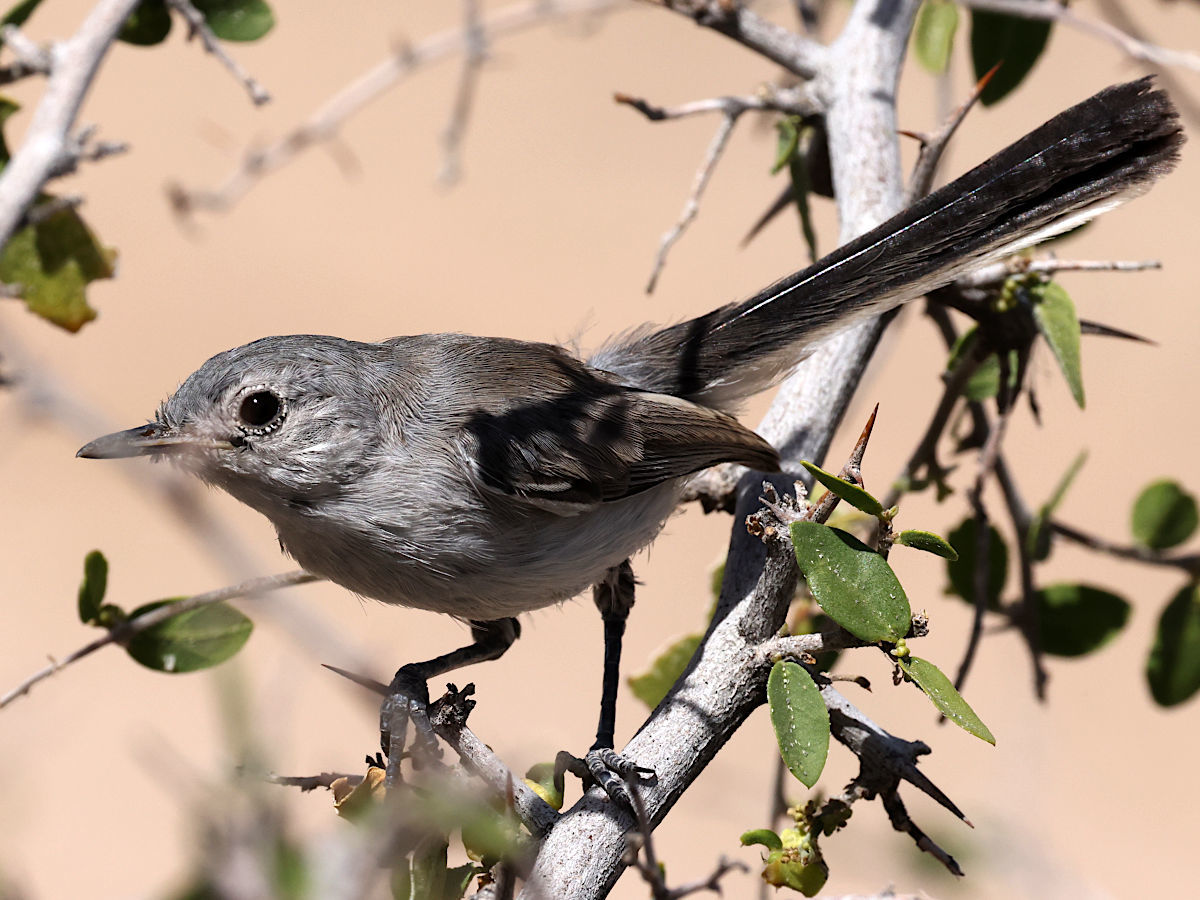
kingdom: Animalia
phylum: Chordata
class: Aves
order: Passeriformes
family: Polioptilidae
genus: Polioptila
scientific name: Polioptila melanura
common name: Black-tailed gnatcatcher
